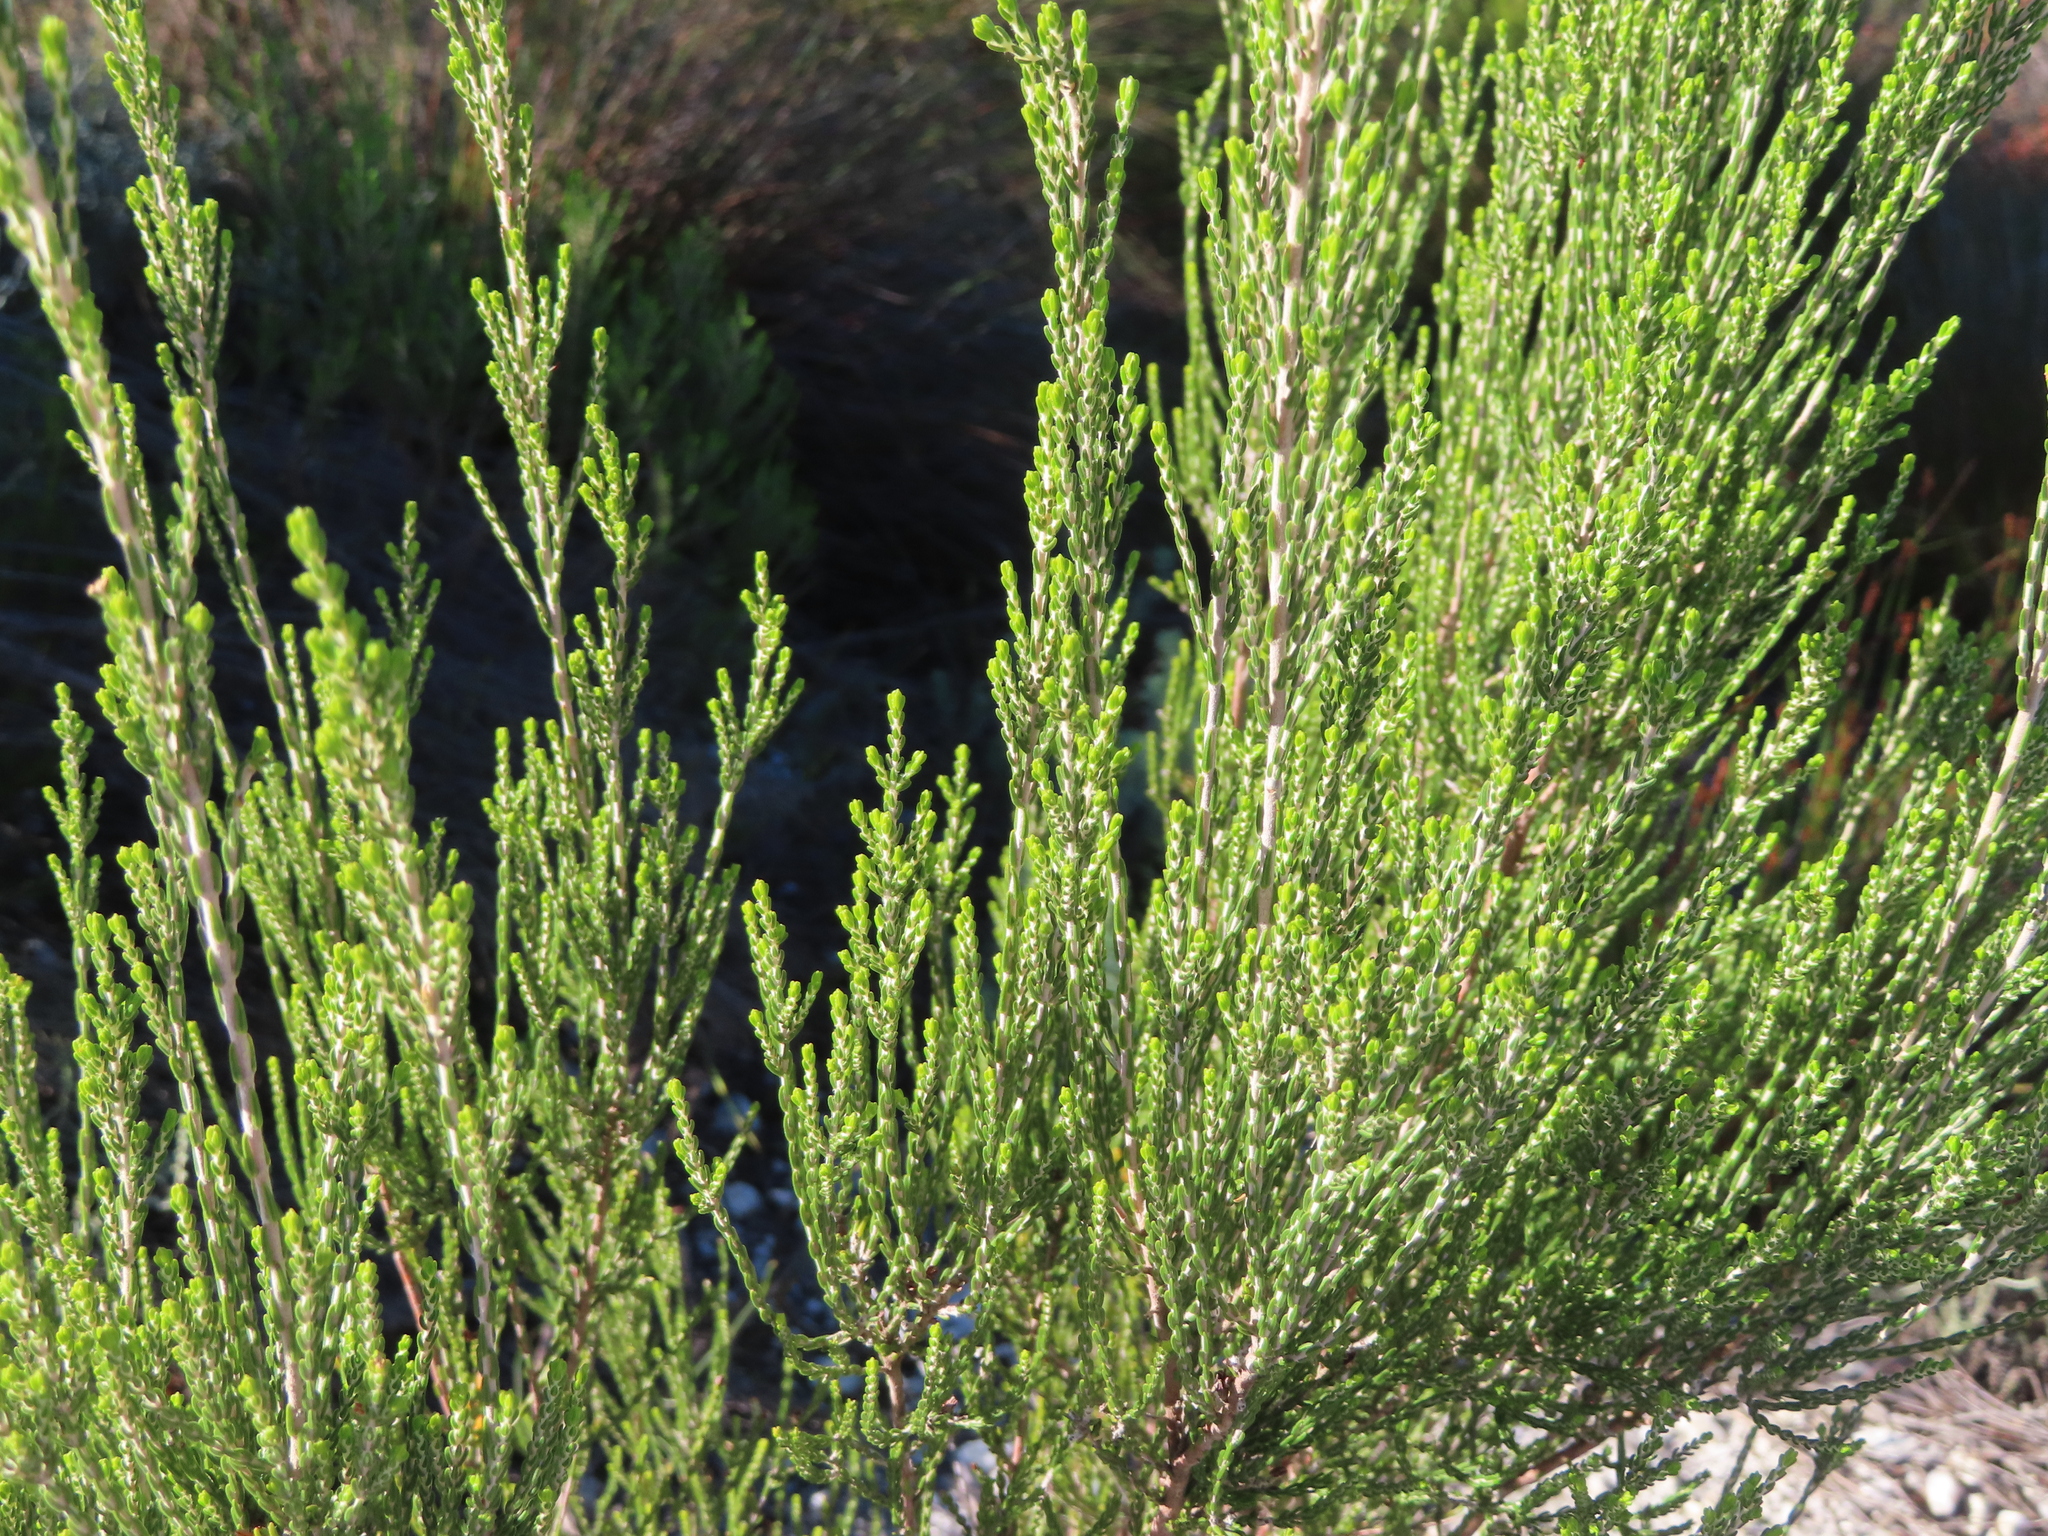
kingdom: Plantae
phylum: Tracheophyta
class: Magnoliopsida
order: Malvales
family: Thymelaeaceae
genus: Passerina
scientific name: Passerina corymbosa
